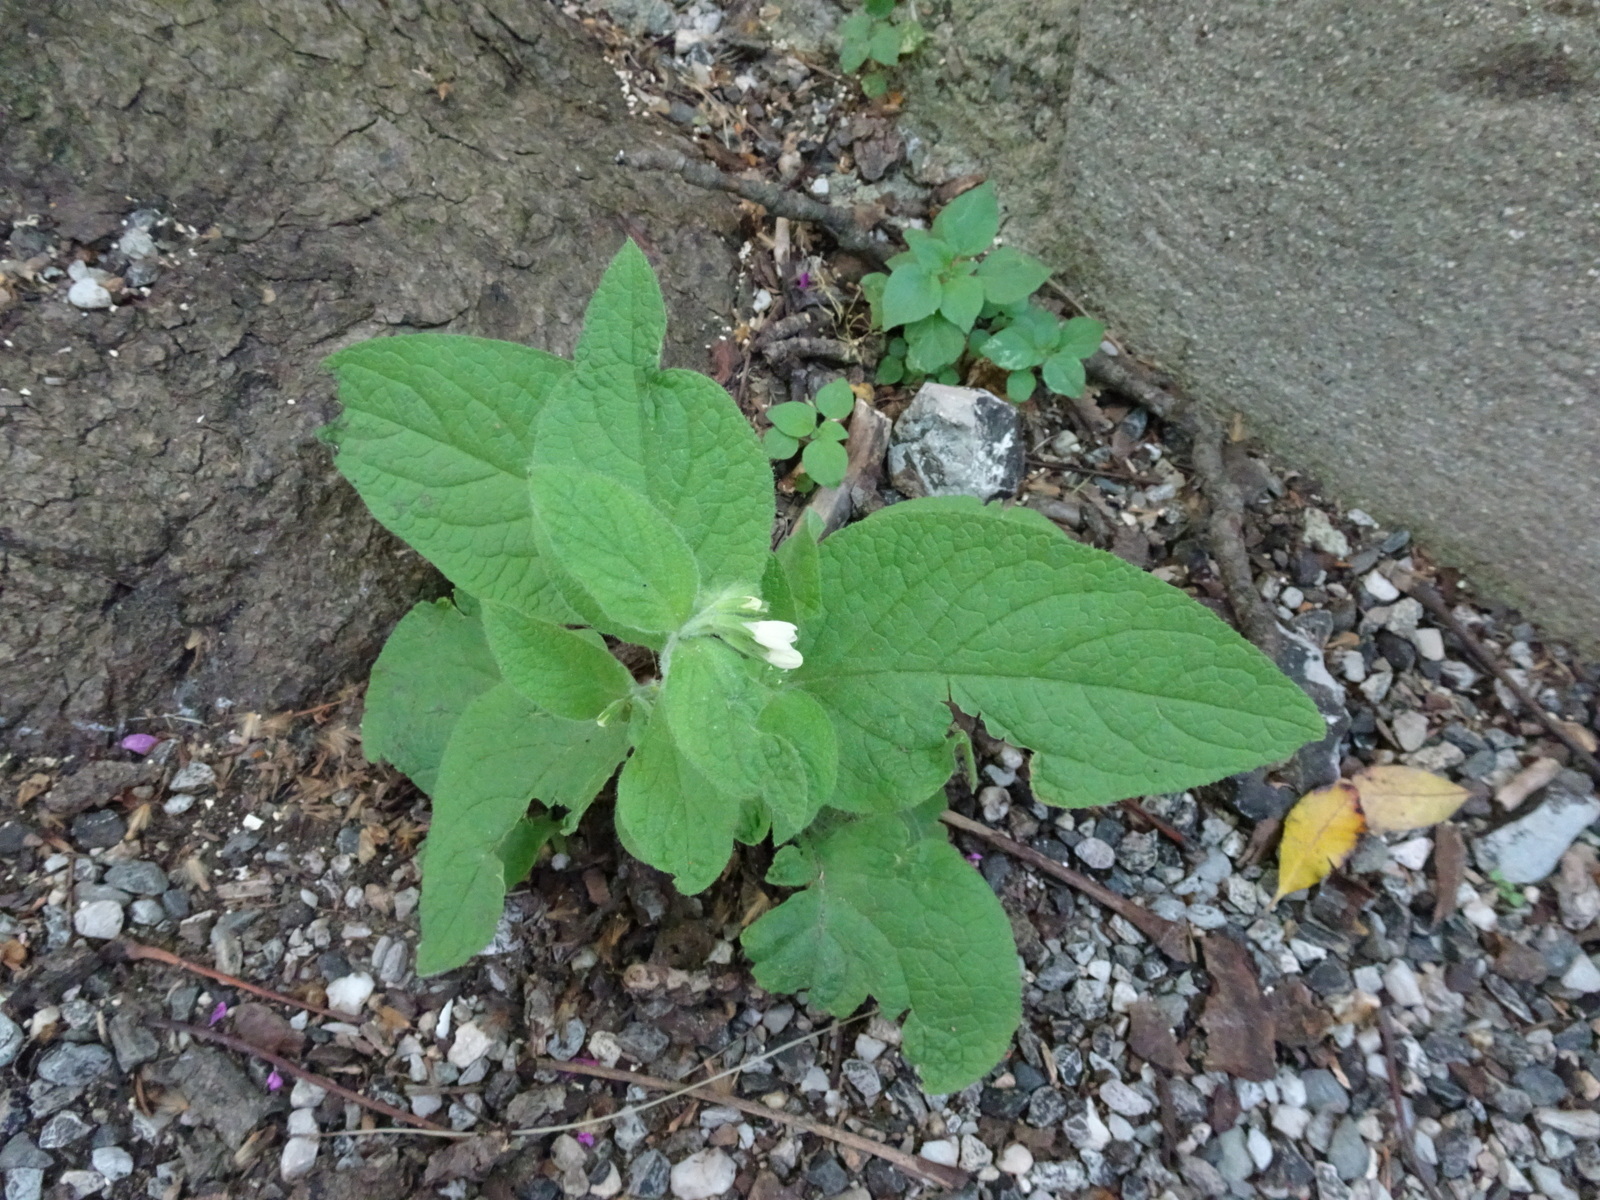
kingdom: Plantae
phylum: Tracheophyta
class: Magnoliopsida
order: Boraginales
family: Boraginaceae
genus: Symphytum
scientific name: Symphytum orientale
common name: White comfrey
